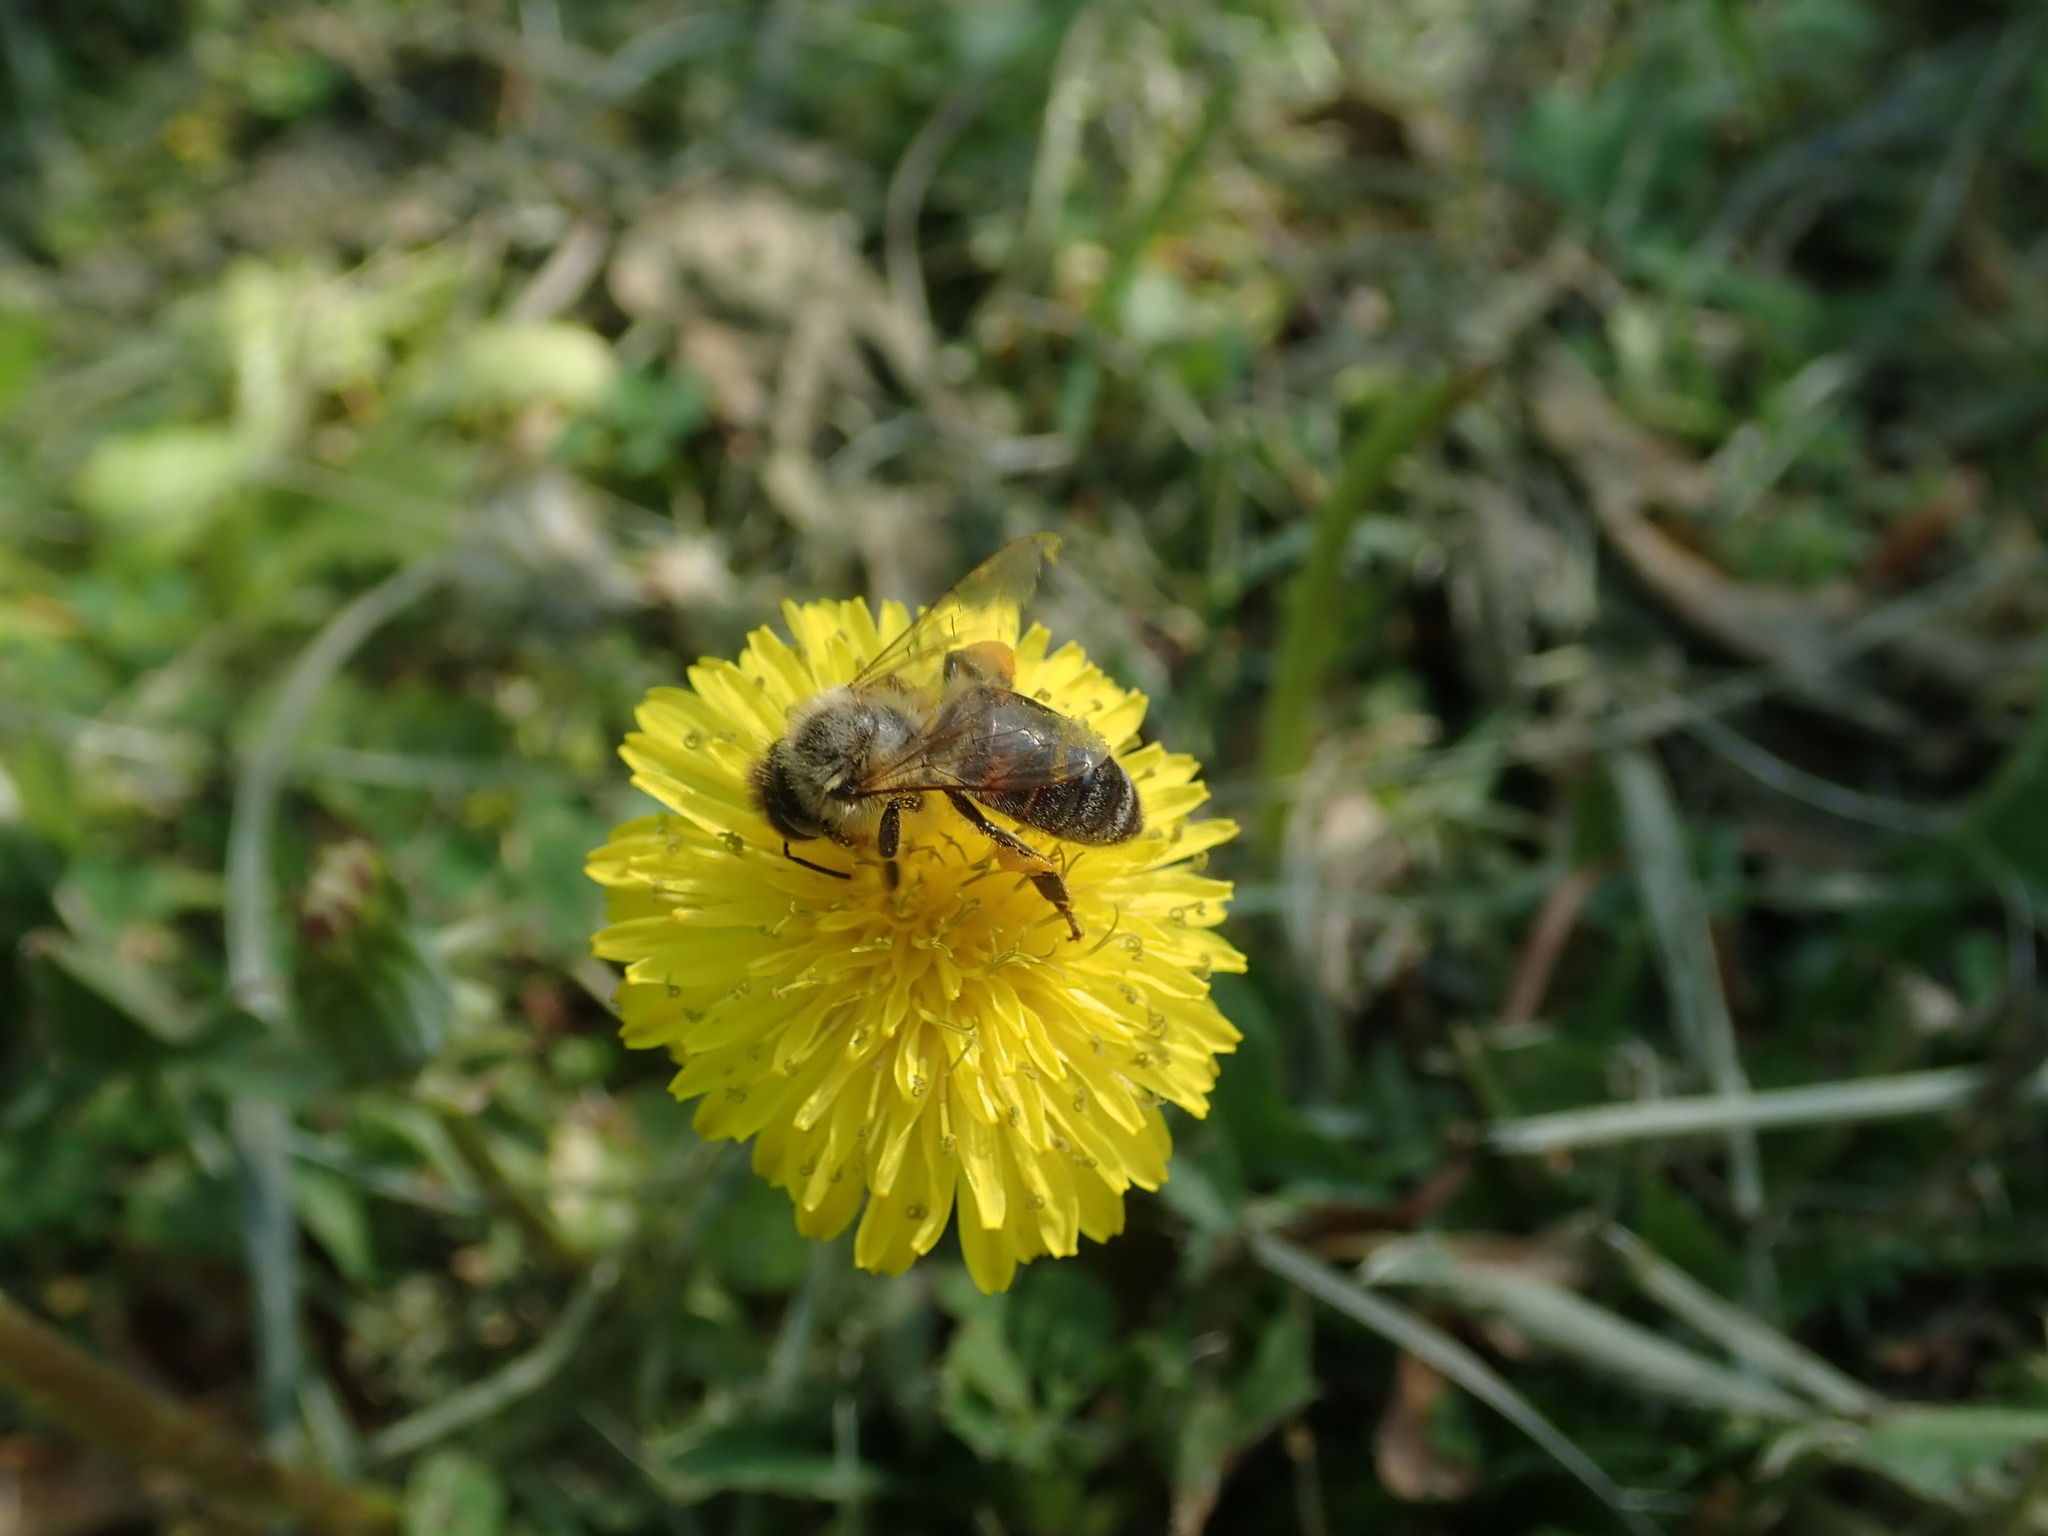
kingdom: Animalia
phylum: Arthropoda
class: Insecta
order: Hymenoptera
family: Apidae
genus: Apis
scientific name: Apis mellifera
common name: Honey bee
